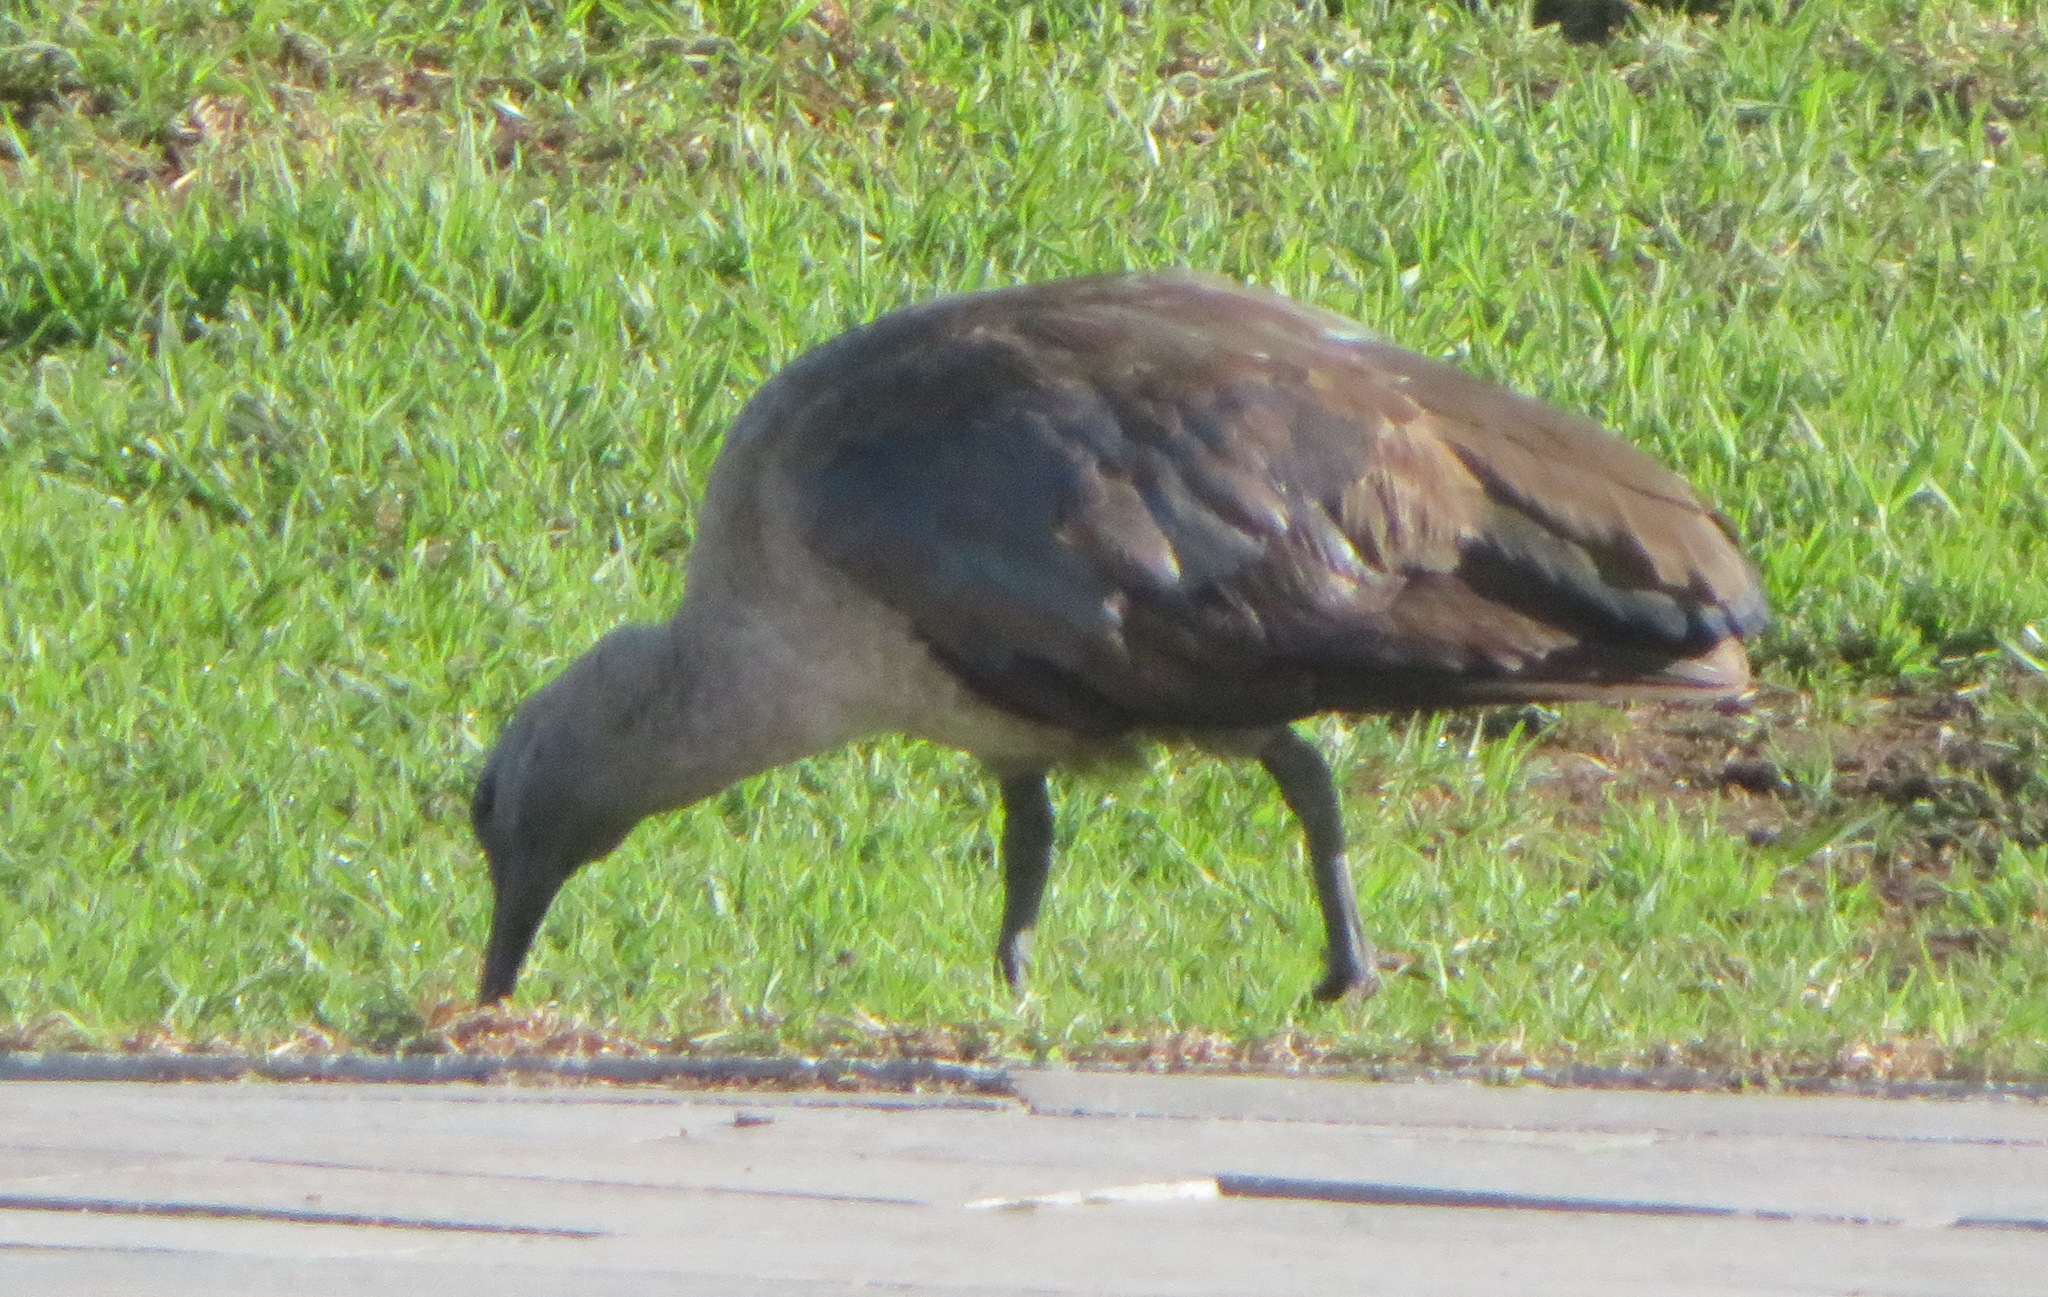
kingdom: Animalia
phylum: Chordata
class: Aves
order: Pelecaniformes
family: Threskiornithidae
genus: Bostrychia
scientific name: Bostrychia hagedash
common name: Hadada ibis
